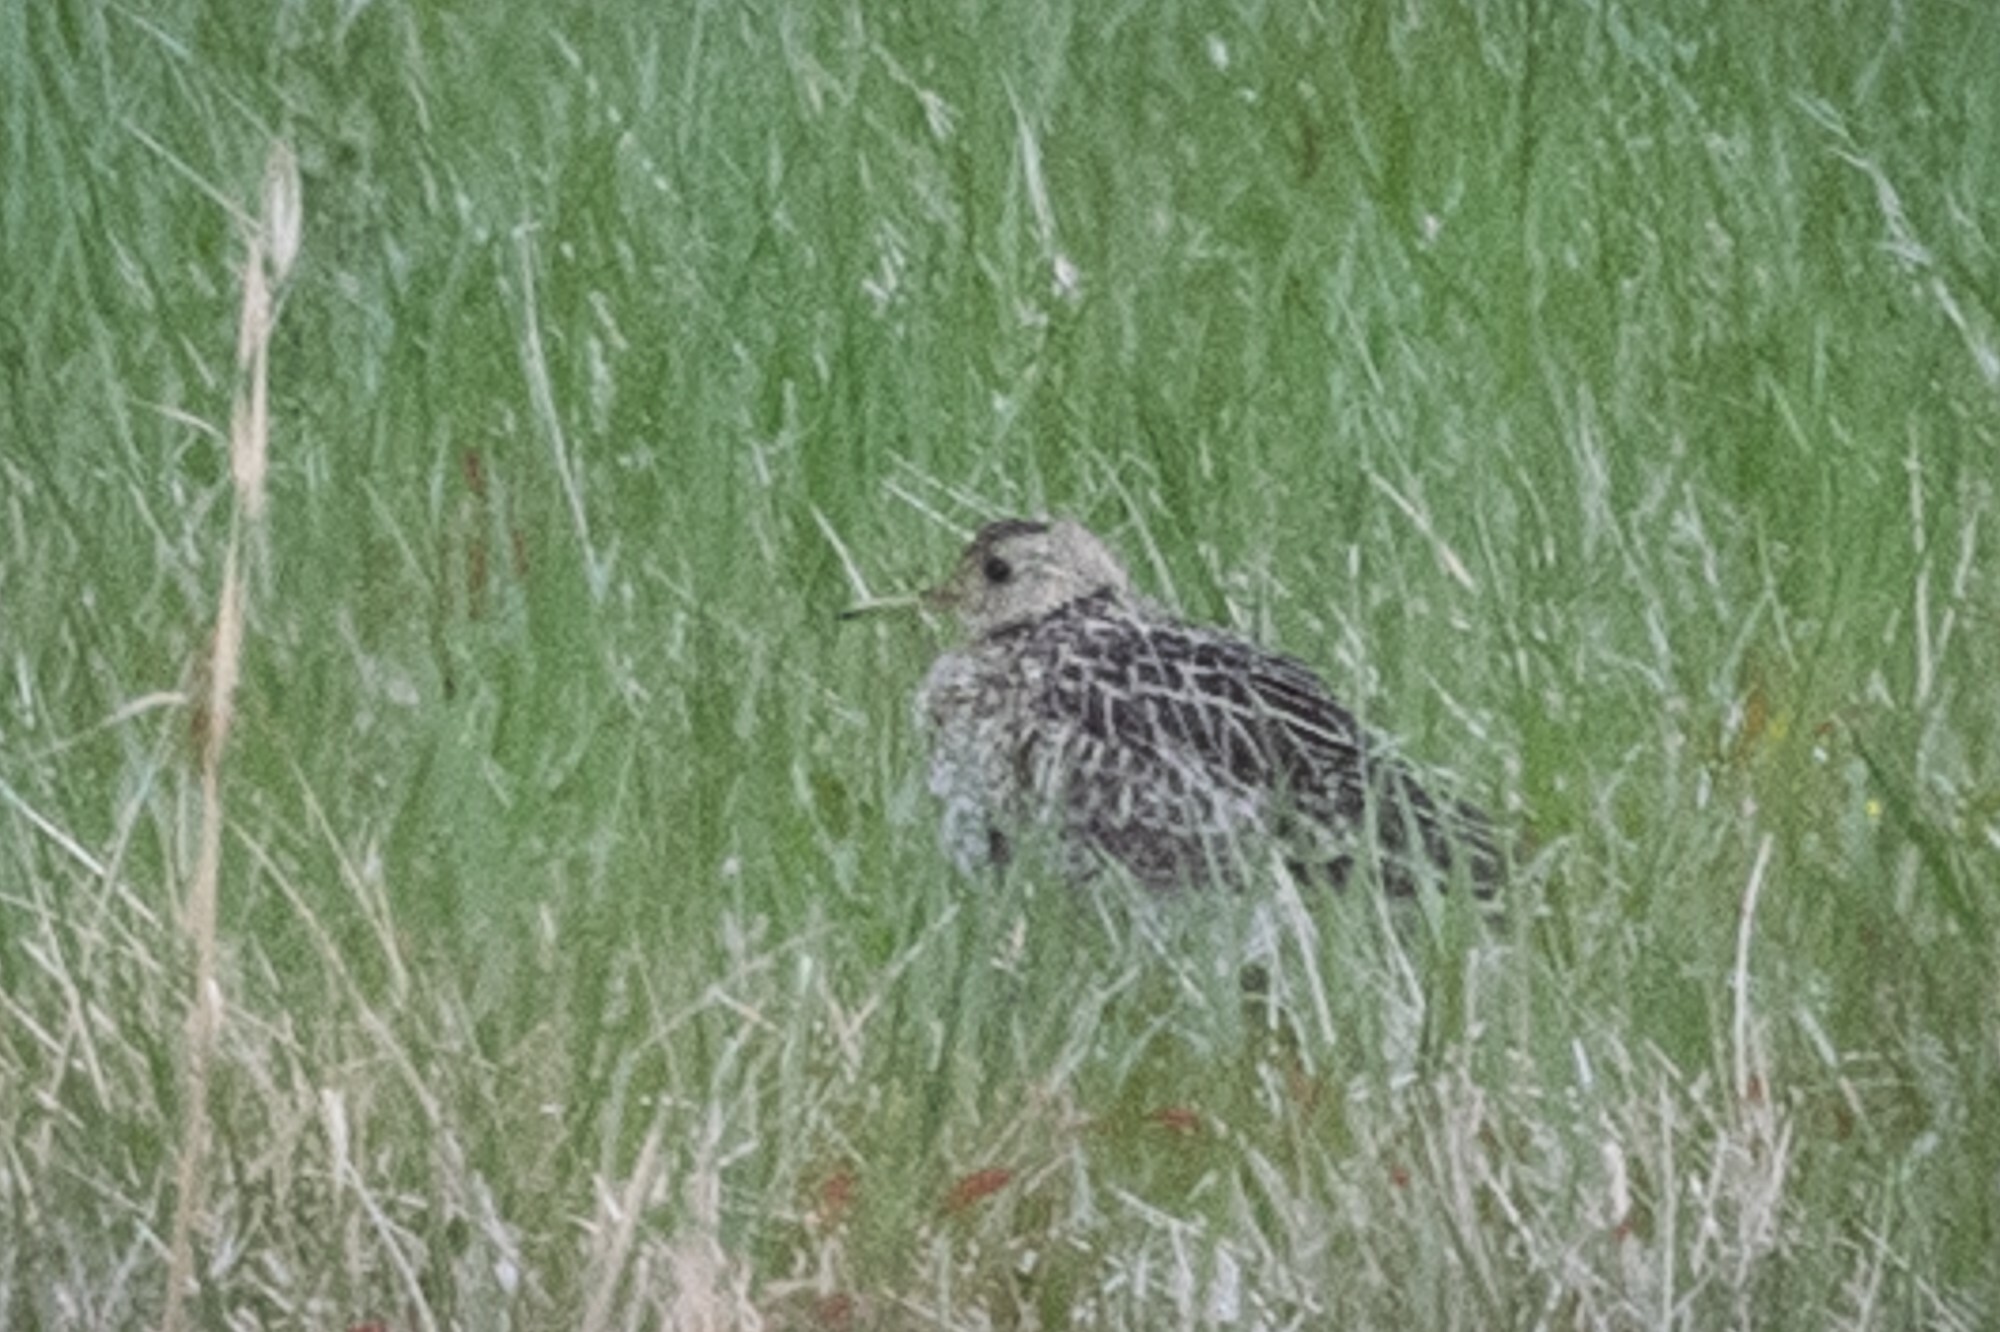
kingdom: Animalia
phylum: Chordata
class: Aves
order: Charadriiformes
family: Scolopacidae
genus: Bartramia
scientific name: Bartramia longicauda
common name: Upland sandpiper
